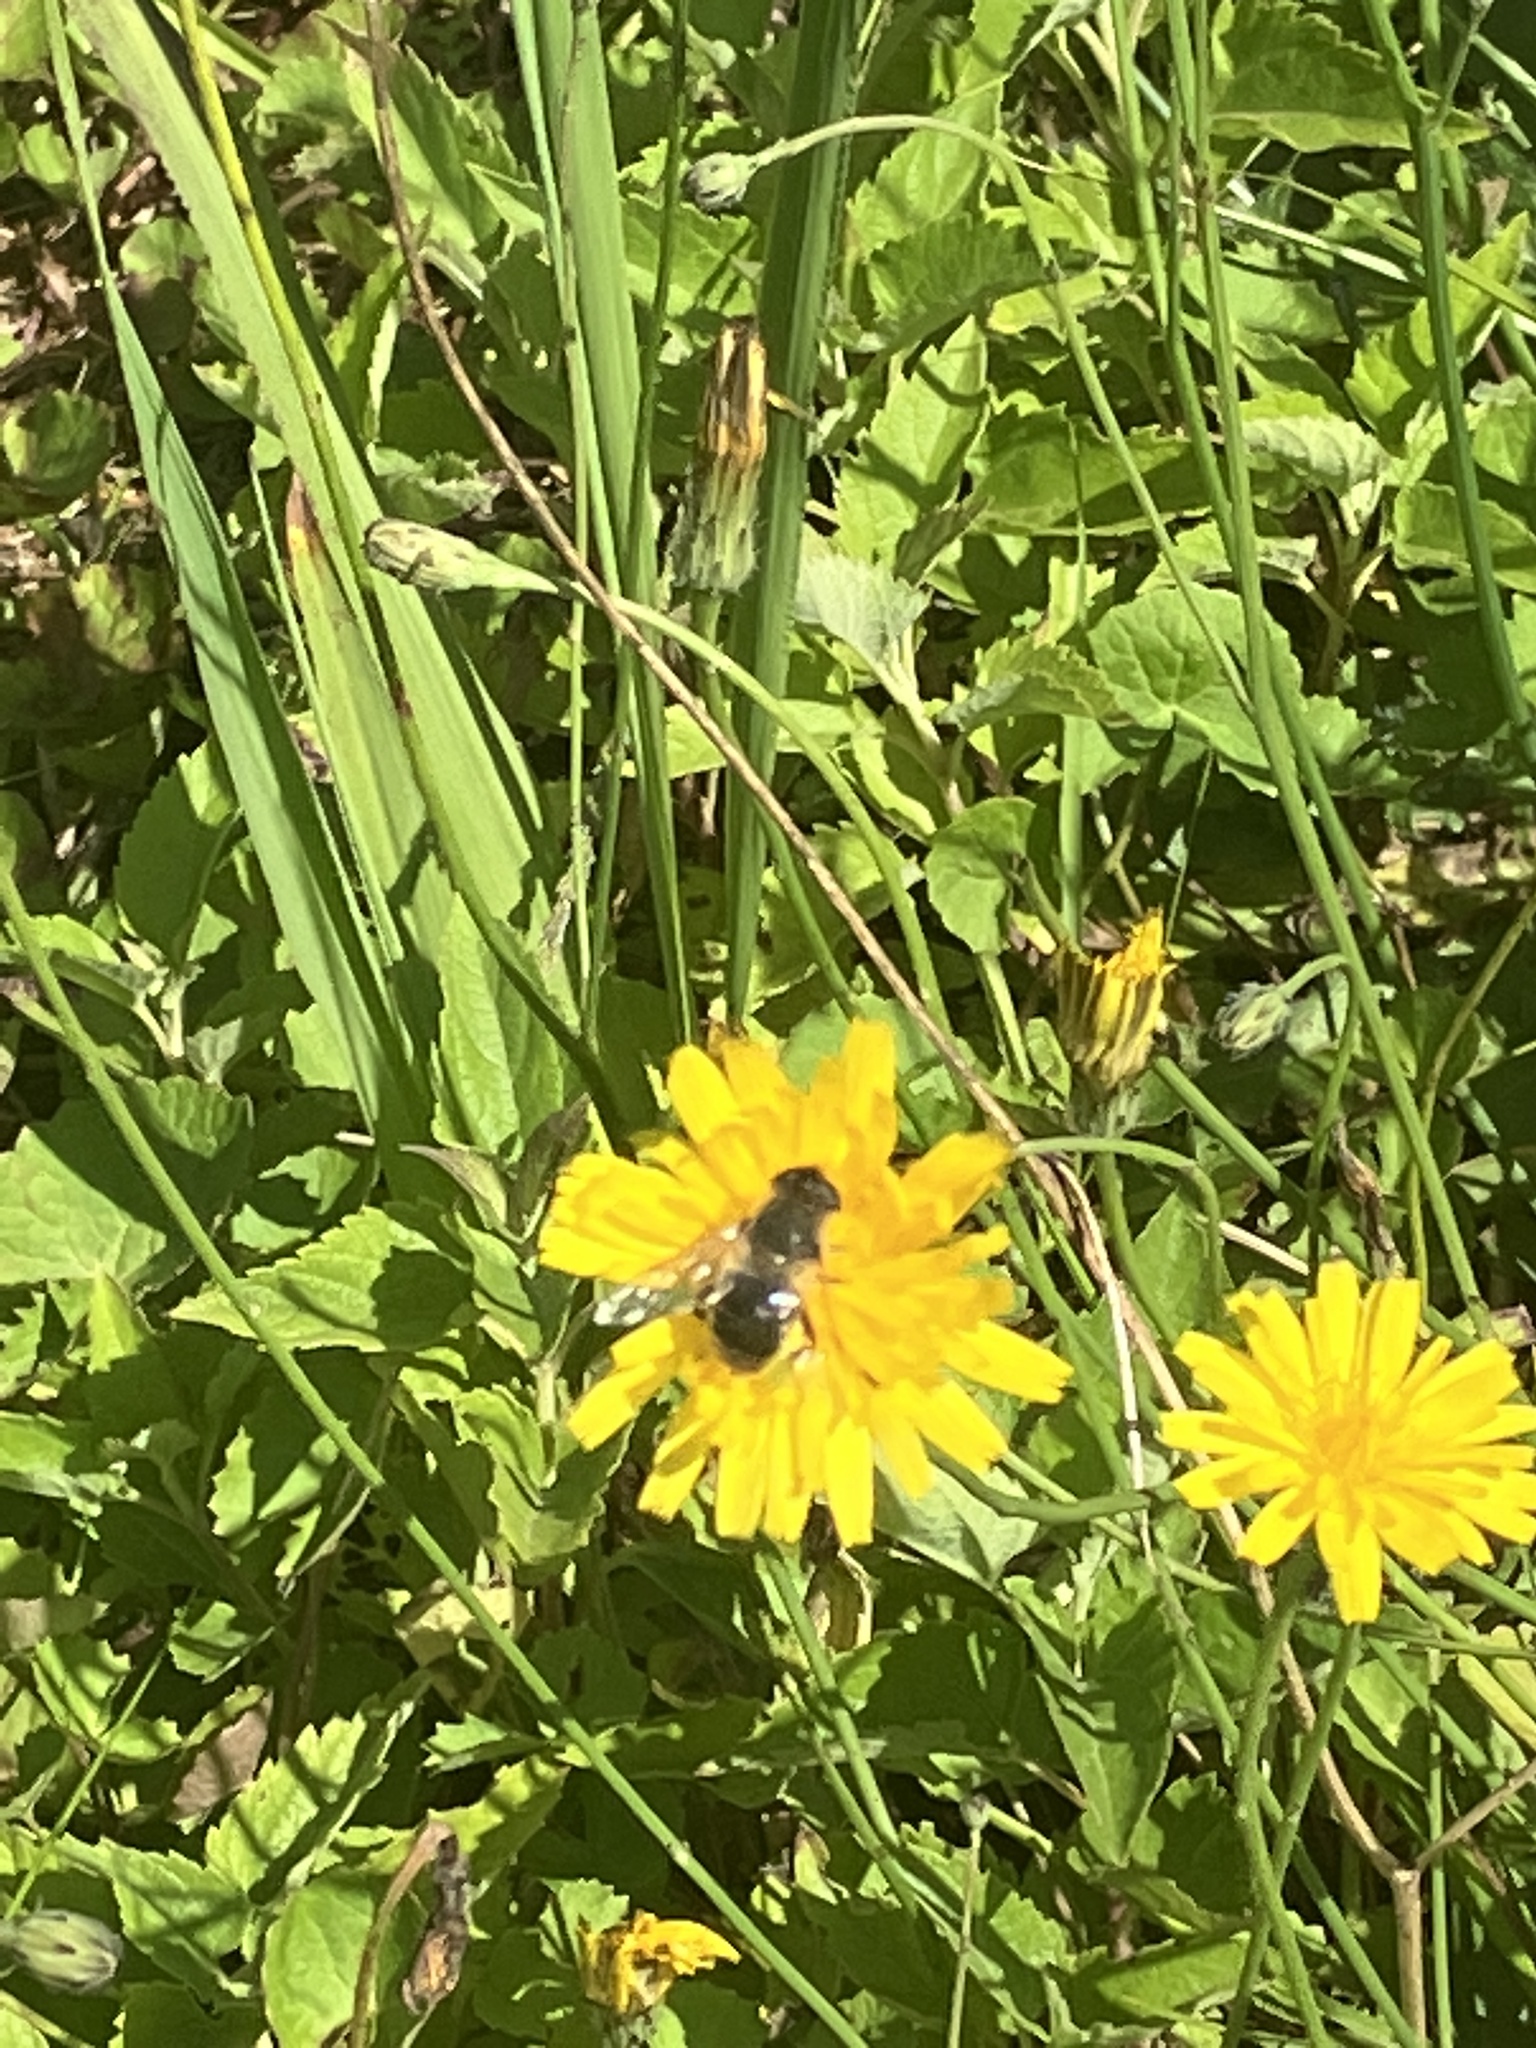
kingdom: Animalia
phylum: Arthropoda
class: Insecta
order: Diptera
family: Syrphidae
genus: Eristalis
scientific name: Eristalis tenax
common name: Drone fly
